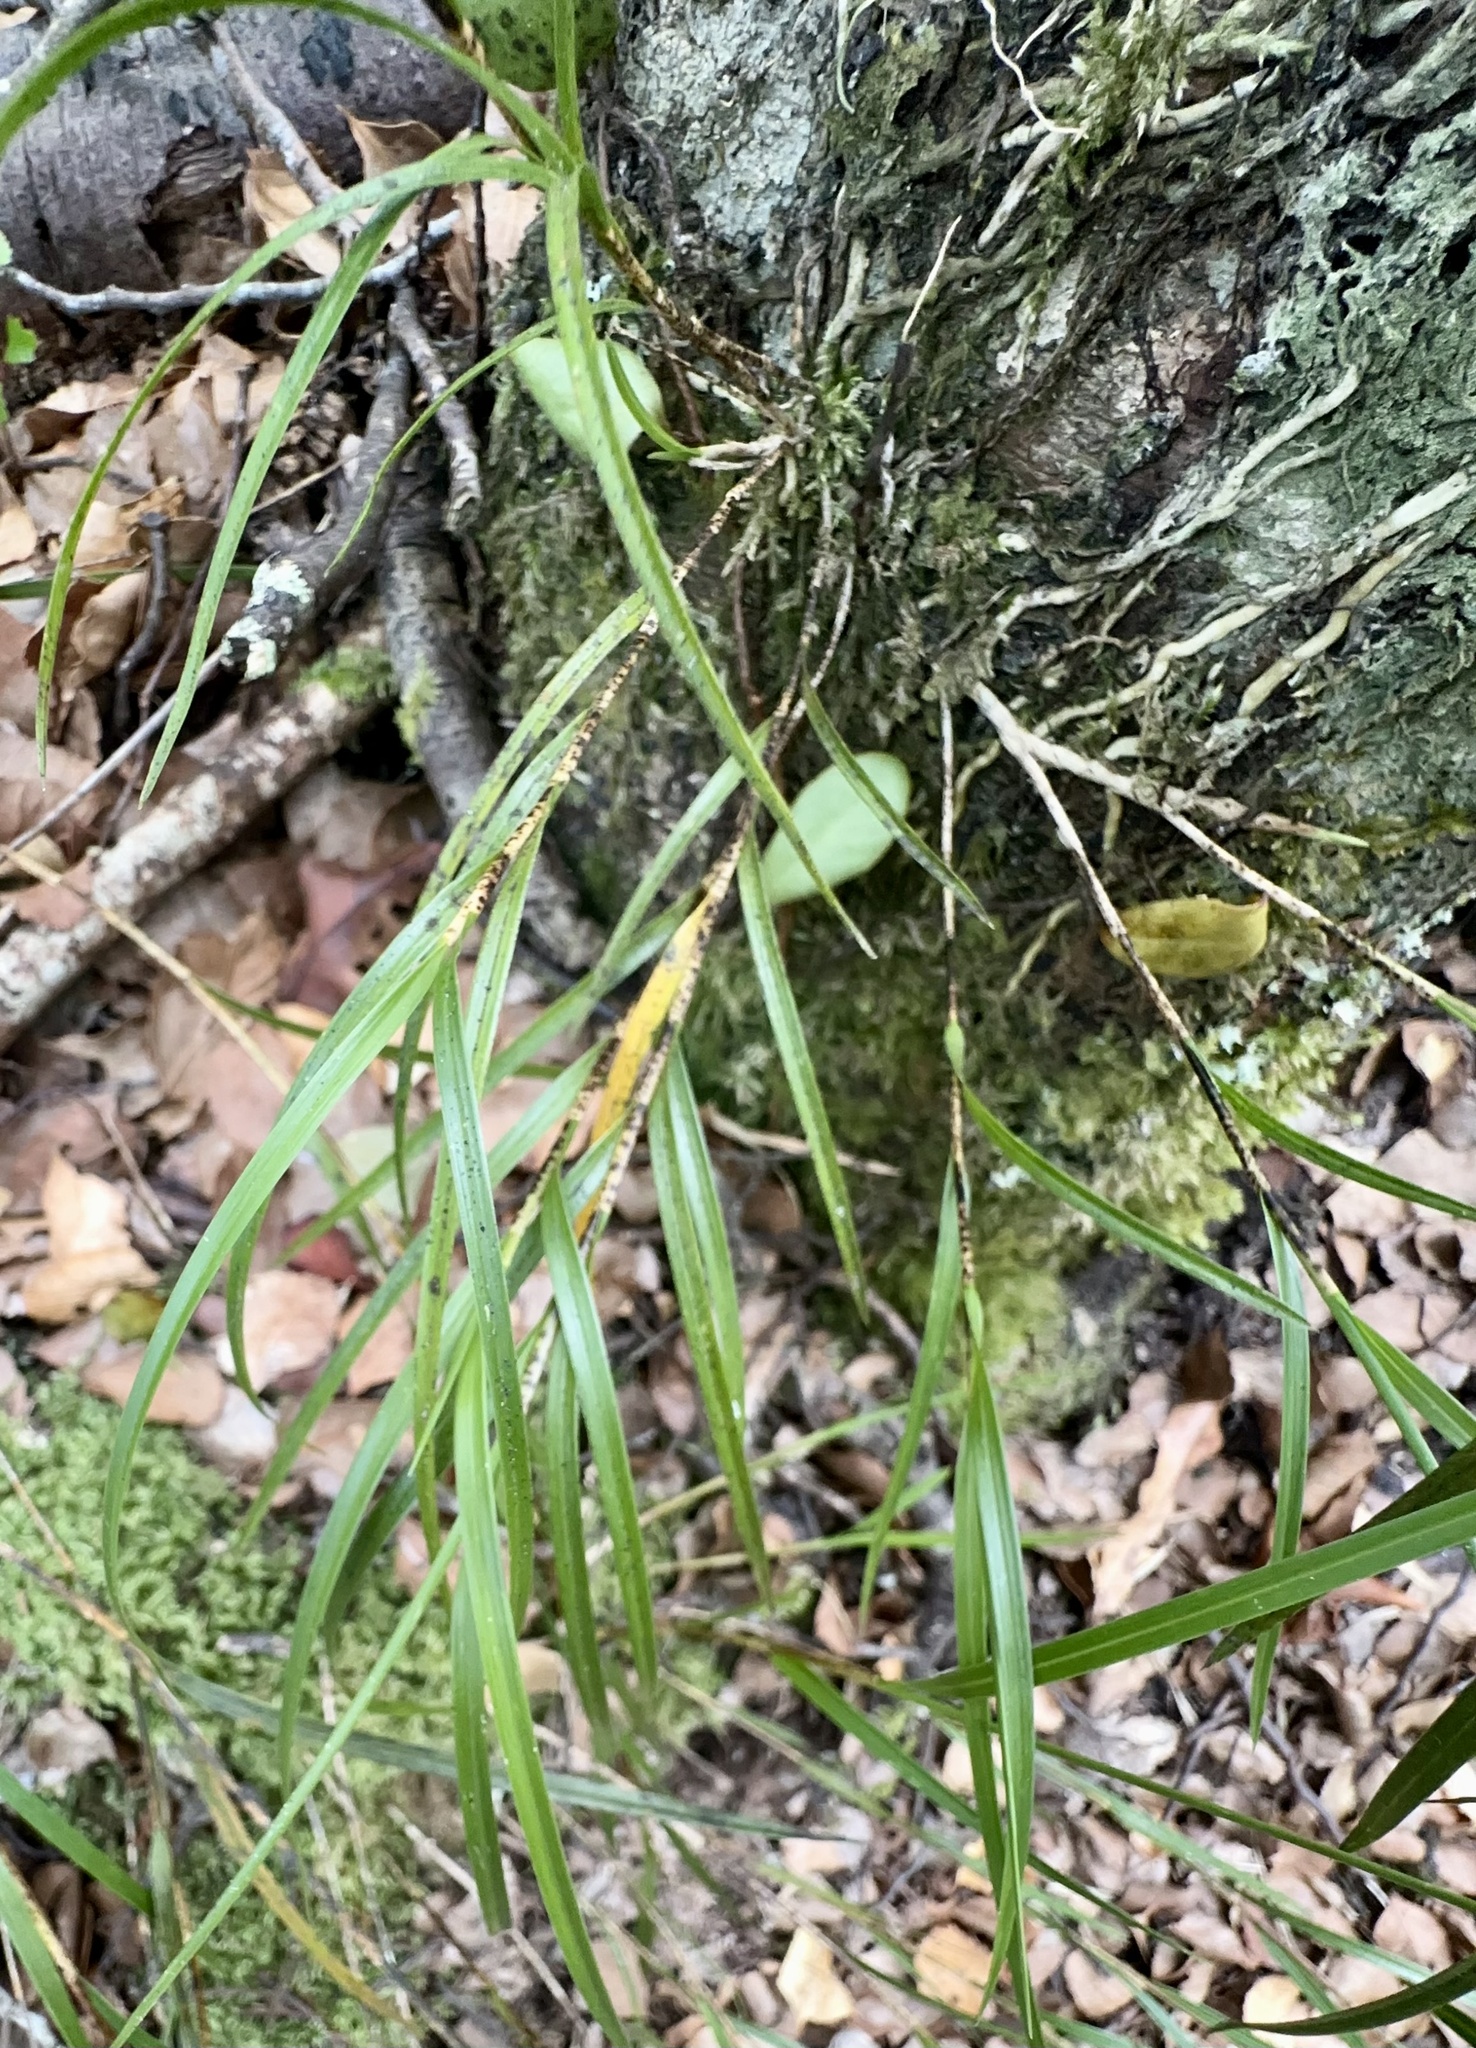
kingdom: Plantae
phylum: Tracheophyta
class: Liliopsida
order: Asparagales
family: Orchidaceae
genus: Earina
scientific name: Earina mucronata
